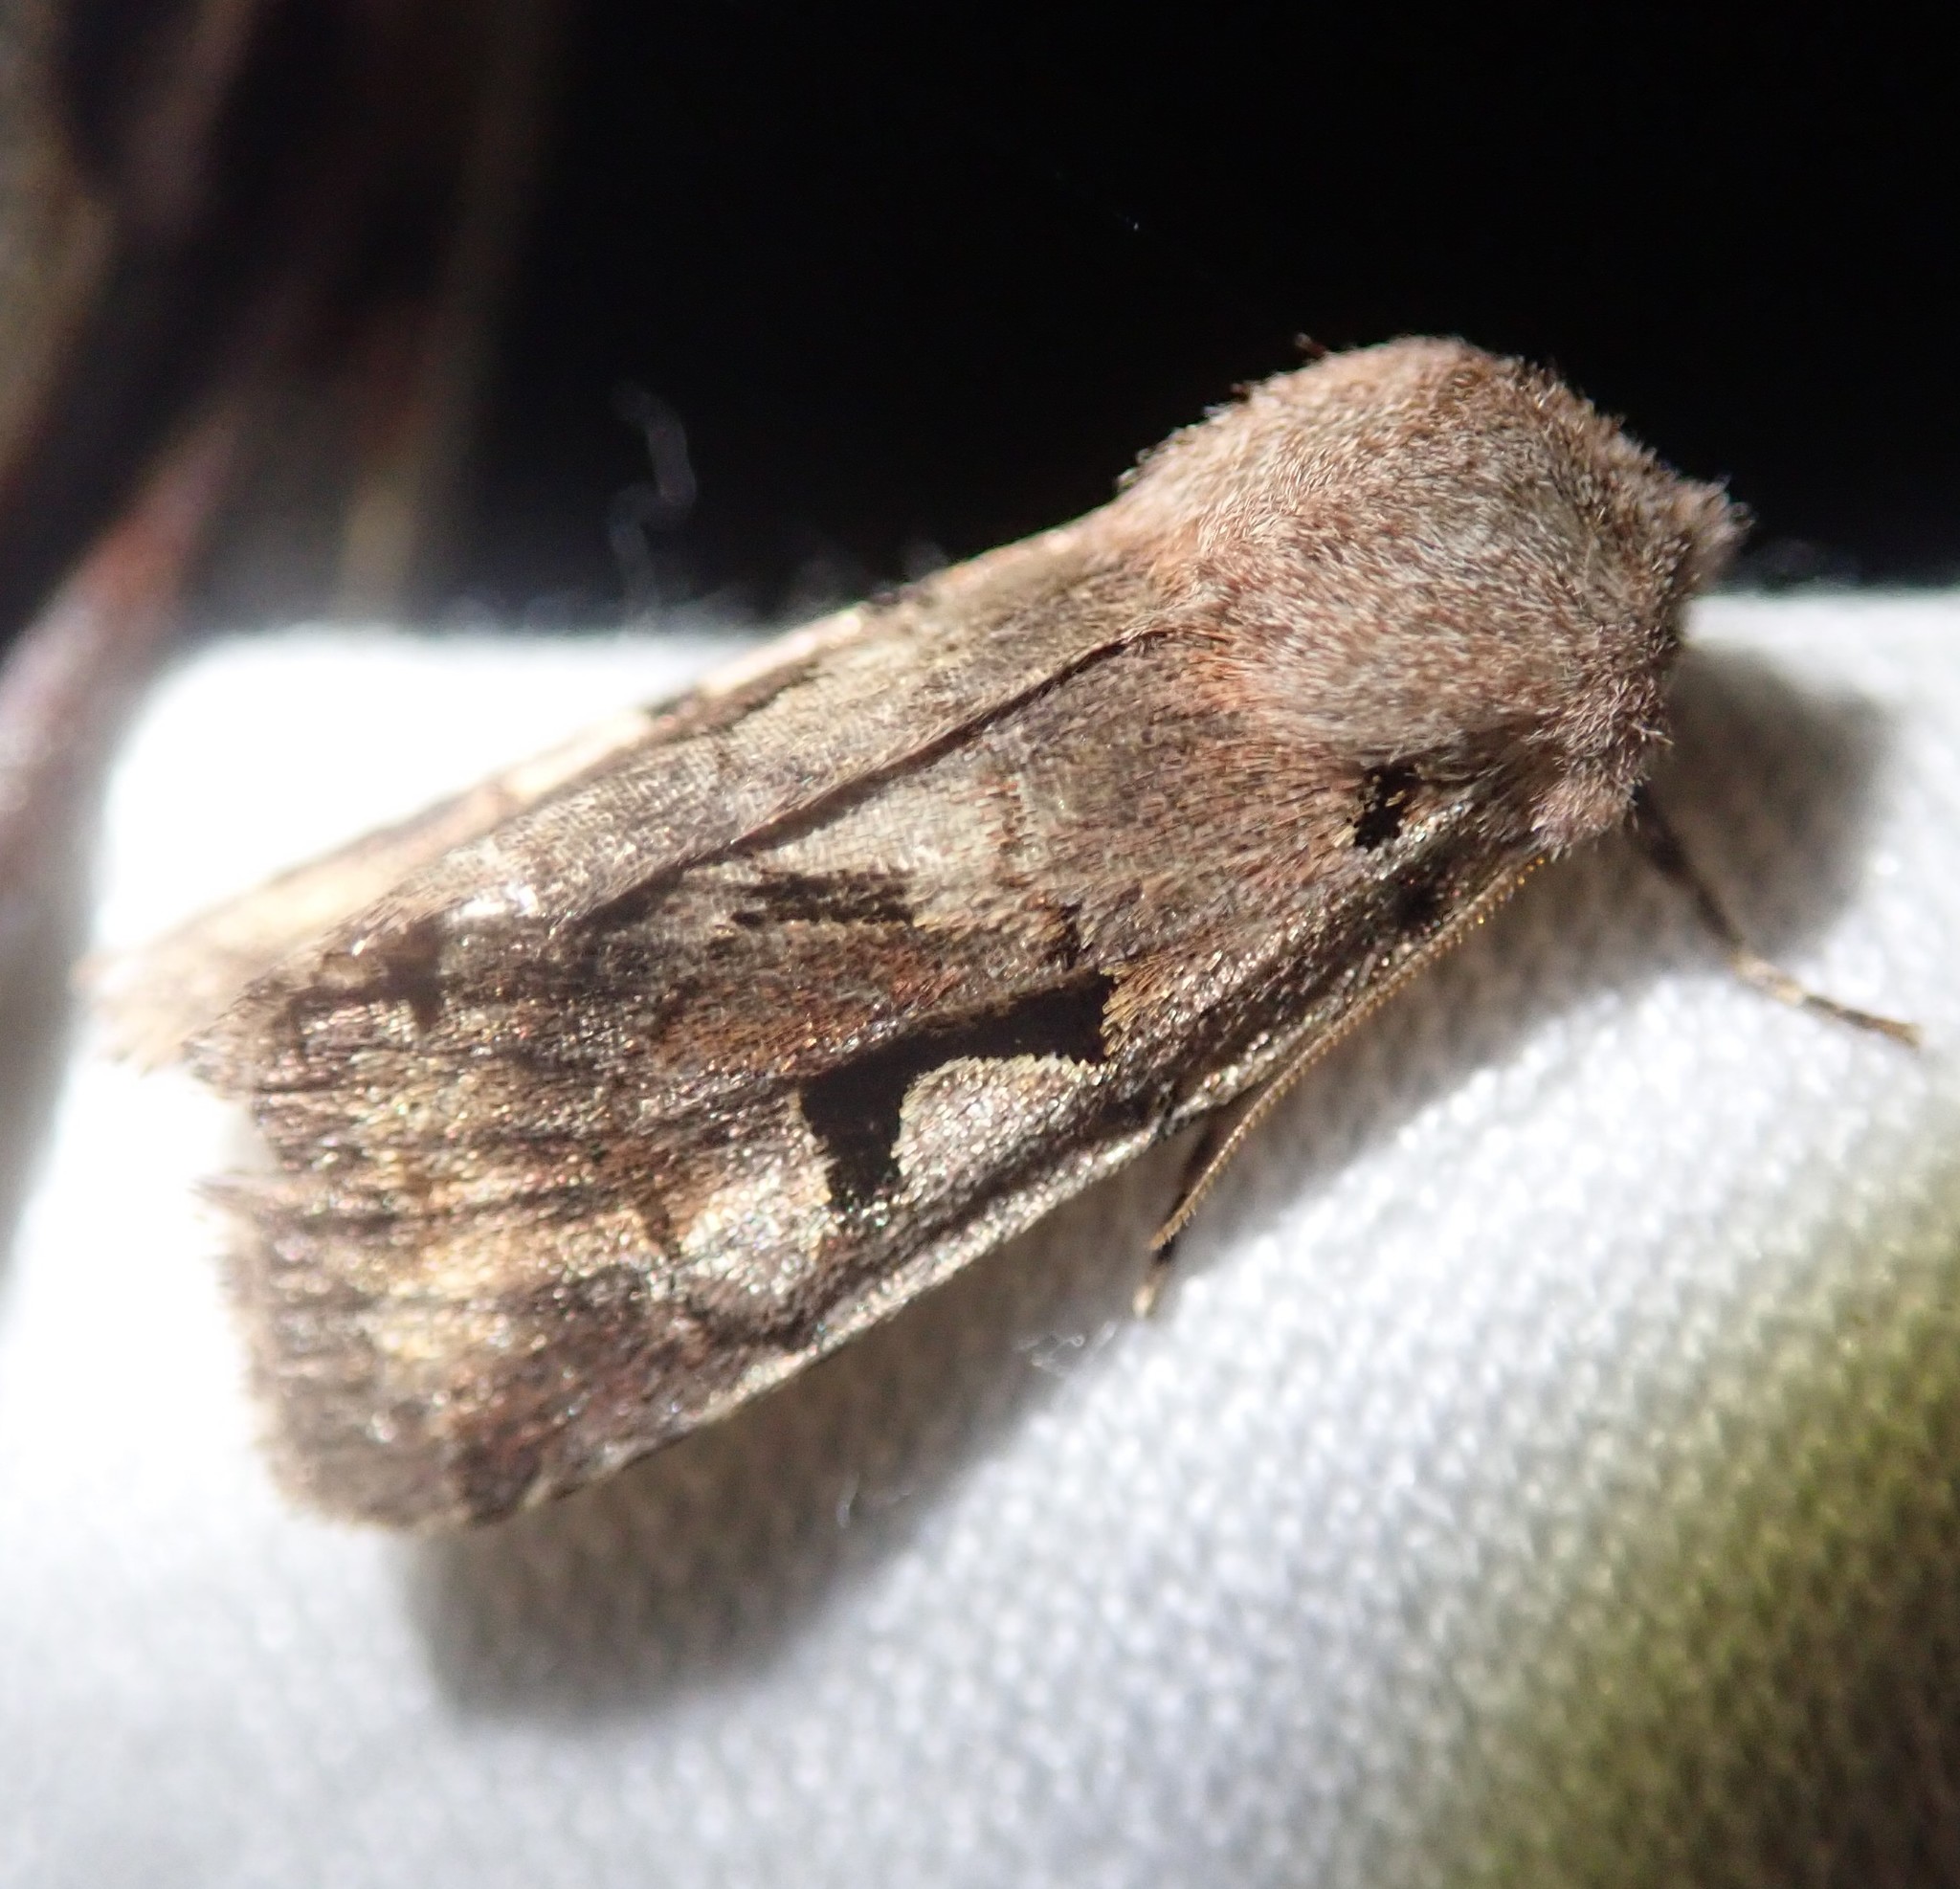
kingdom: Animalia
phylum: Arthropoda
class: Insecta
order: Lepidoptera
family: Noctuidae
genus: Orthosia
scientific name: Orthosia gothica
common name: Hebrew character
